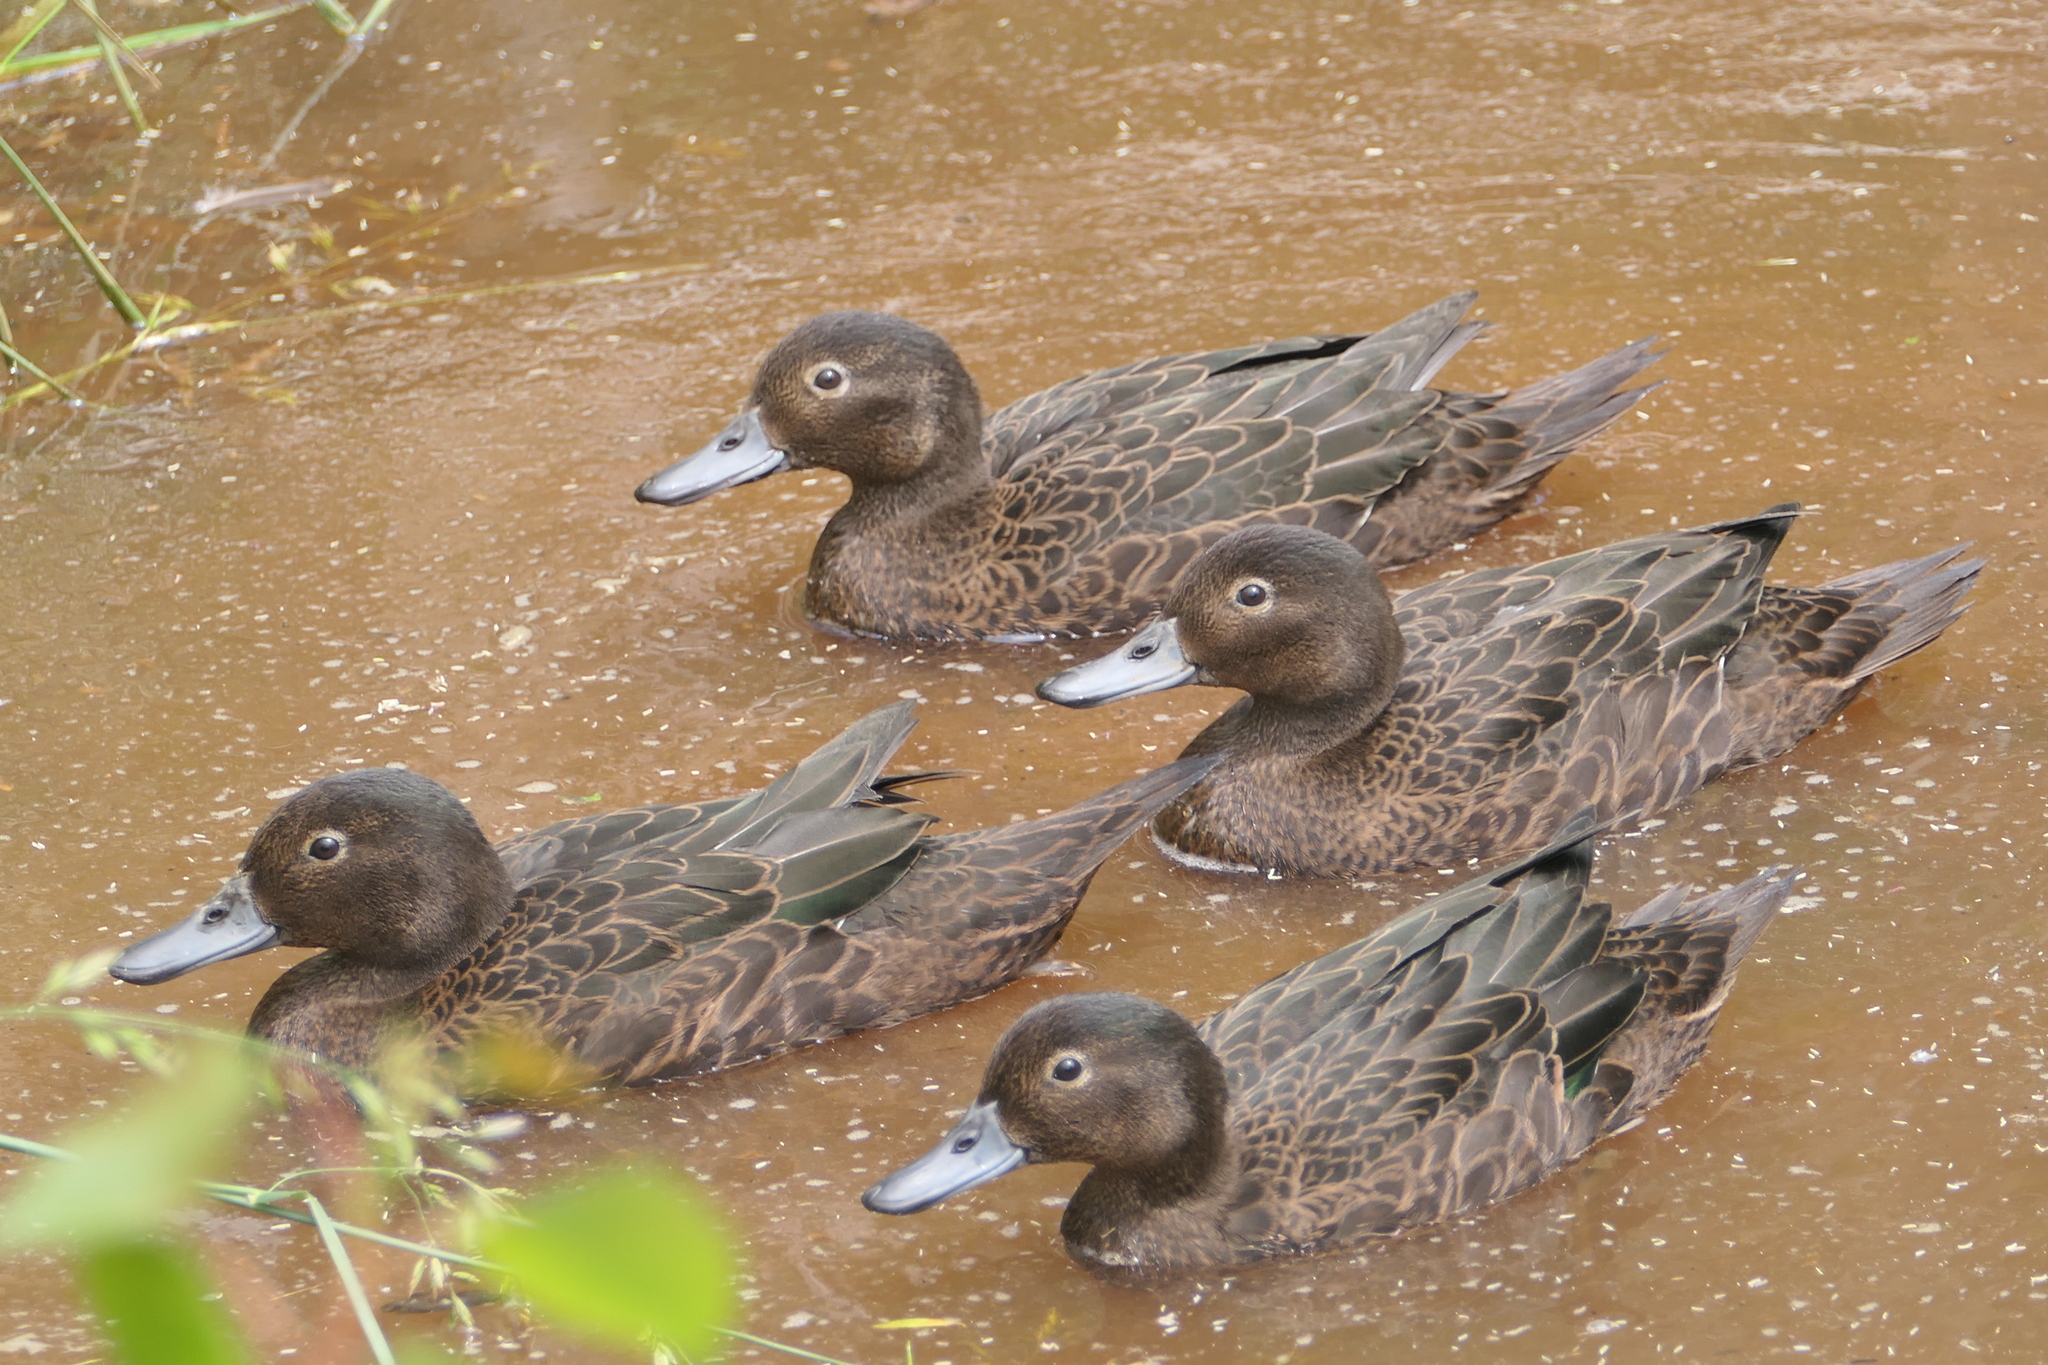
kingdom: Animalia
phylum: Chordata
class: Aves
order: Anseriformes
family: Anatidae
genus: Anas
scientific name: Anas chlorotis
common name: Brown teal
